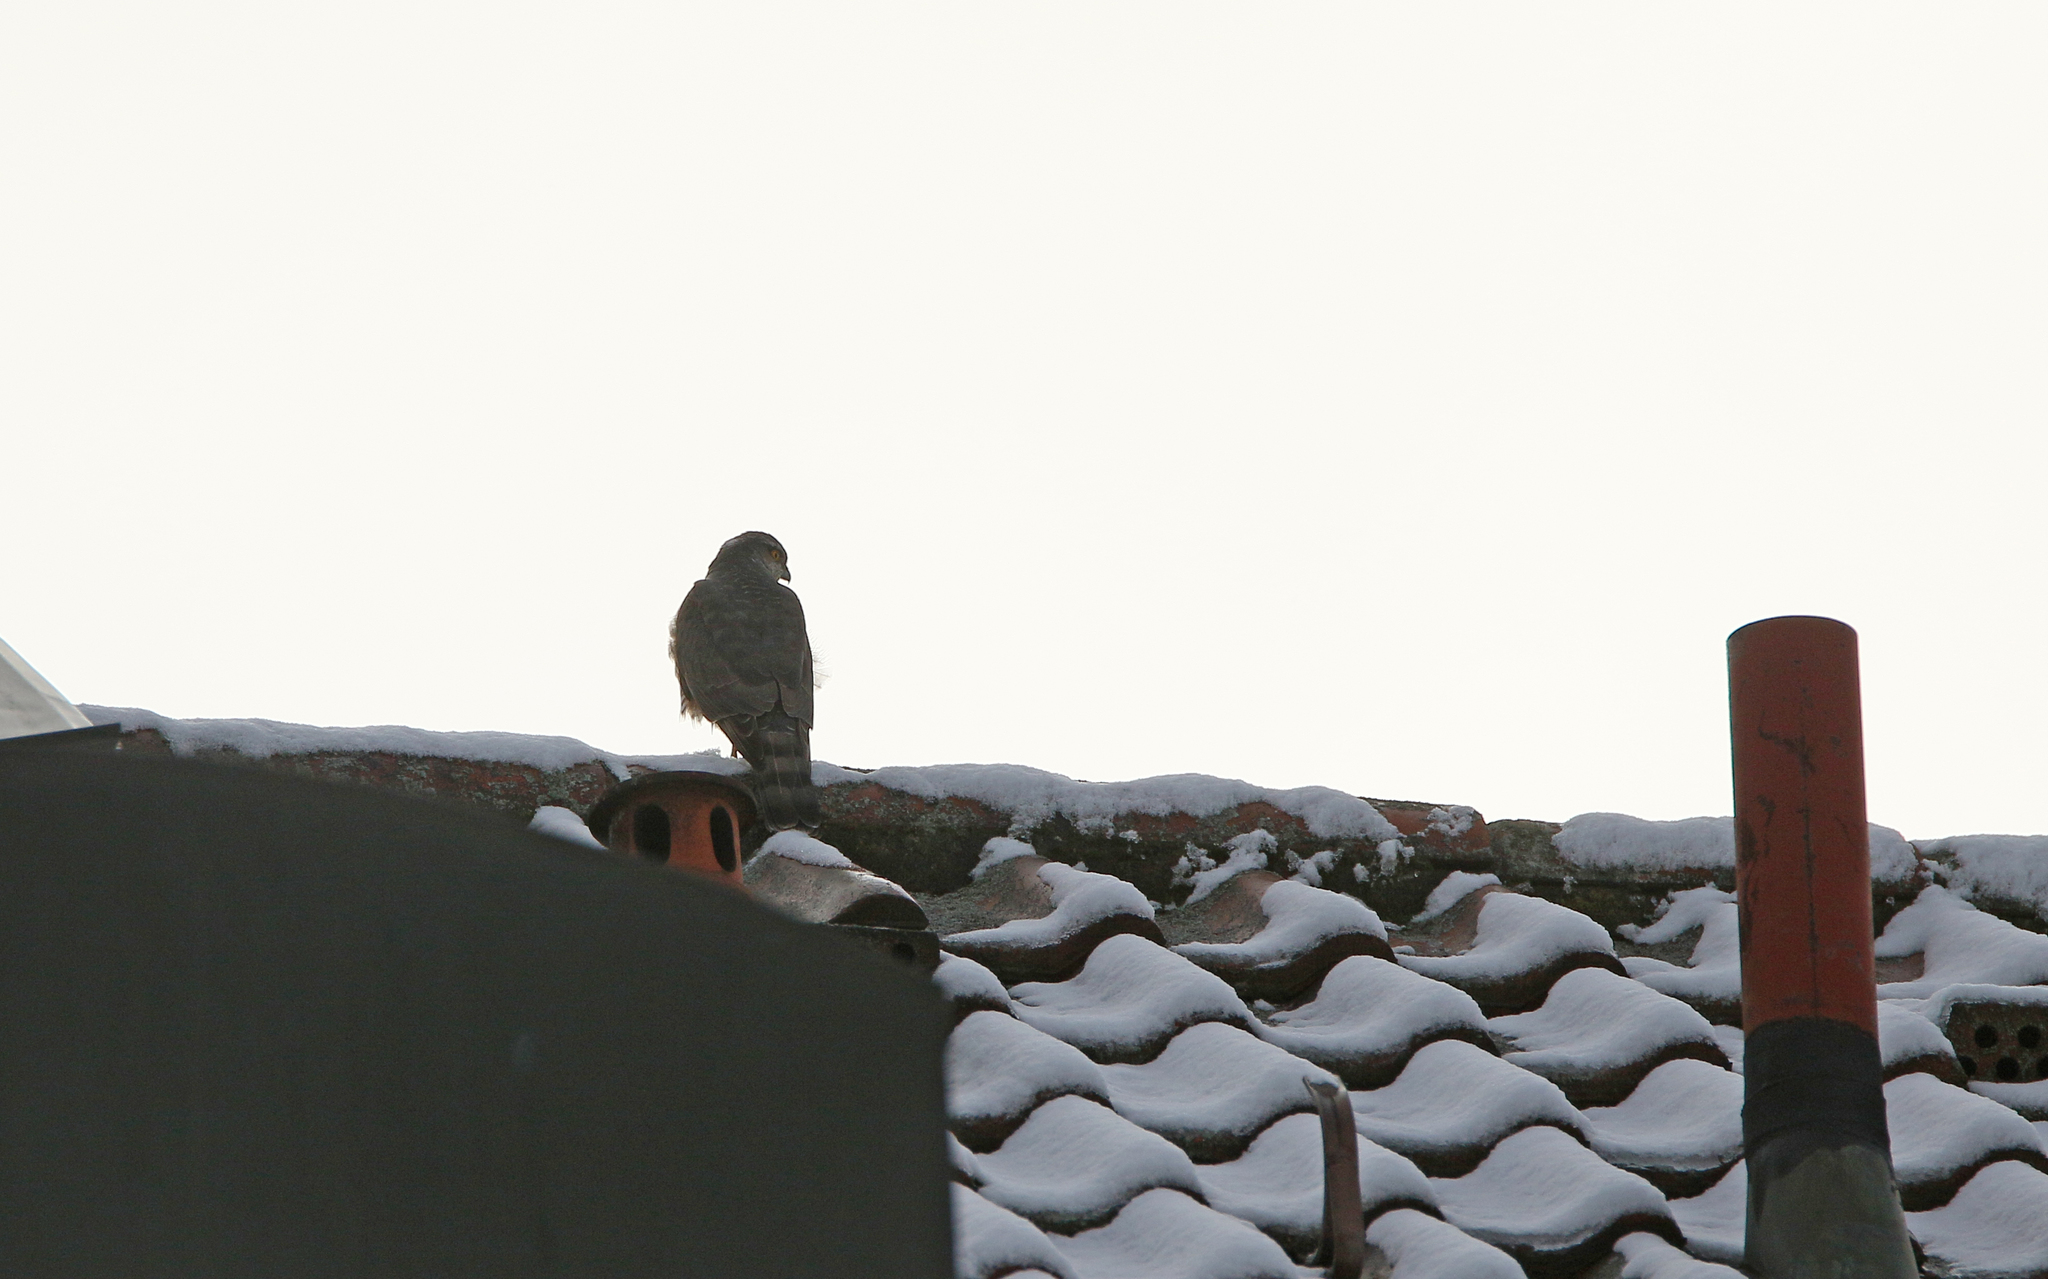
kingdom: Animalia
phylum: Chordata
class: Aves
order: Accipitriformes
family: Accipitridae
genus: Accipiter
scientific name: Accipiter nisus
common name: Eurasian sparrowhawk
